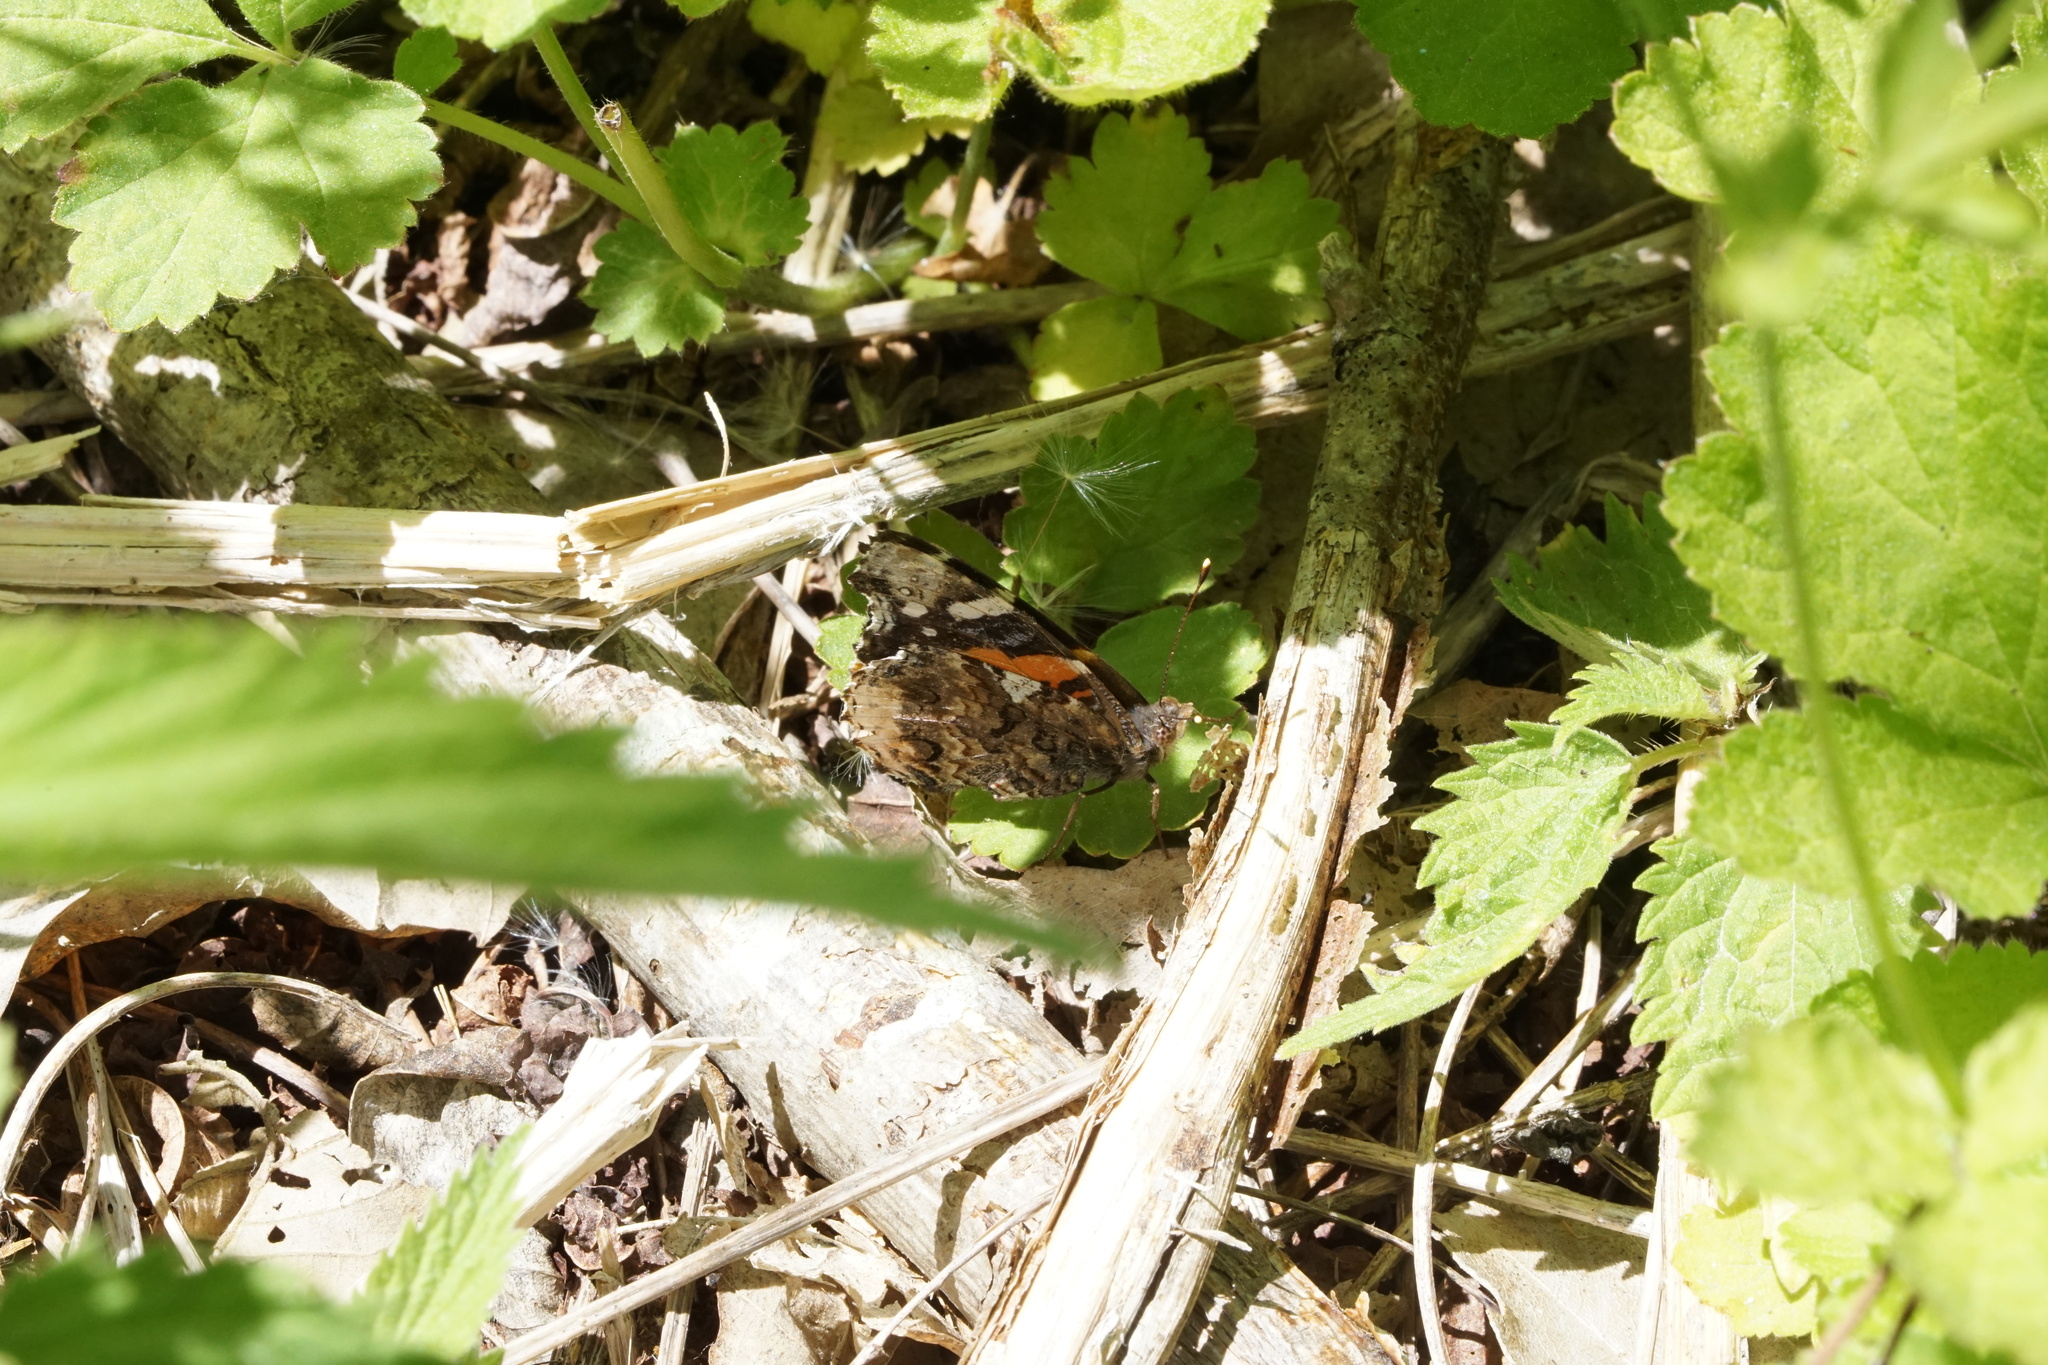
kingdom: Animalia
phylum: Arthropoda
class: Insecta
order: Lepidoptera
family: Nymphalidae
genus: Vanessa
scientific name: Vanessa atalanta
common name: Red admiral
